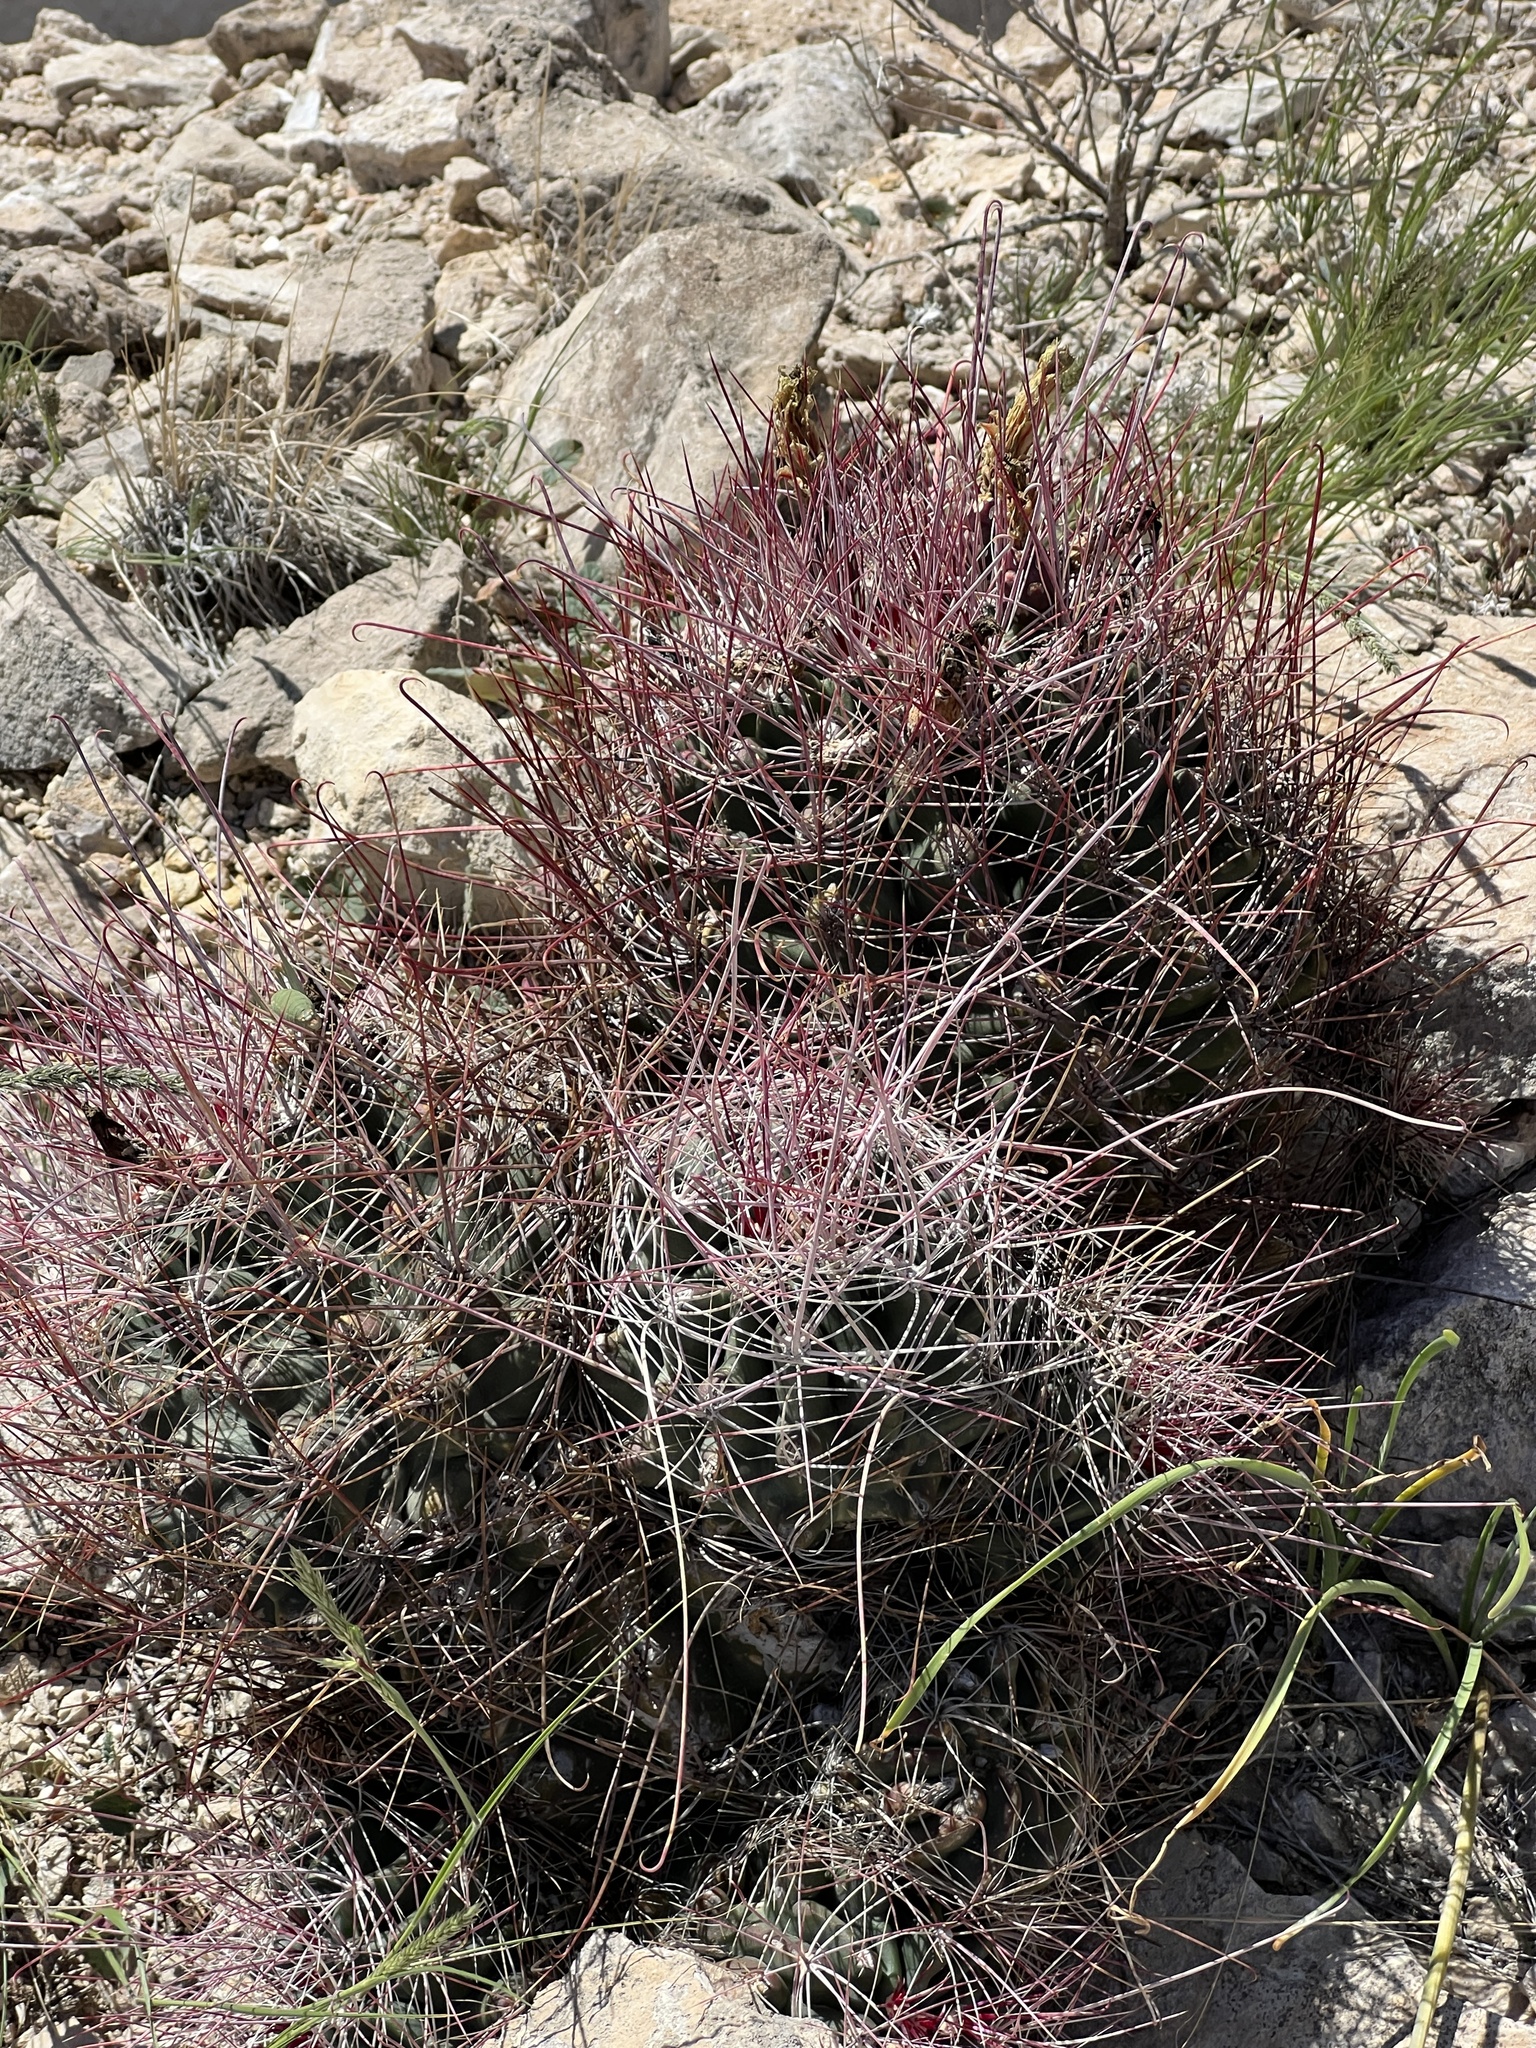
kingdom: Plantae
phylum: Tracheophyta
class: Magnoliopsida
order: Caryophyllales
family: Cactaceae
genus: Bisnaga
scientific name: Bisnaga hamatacantha
